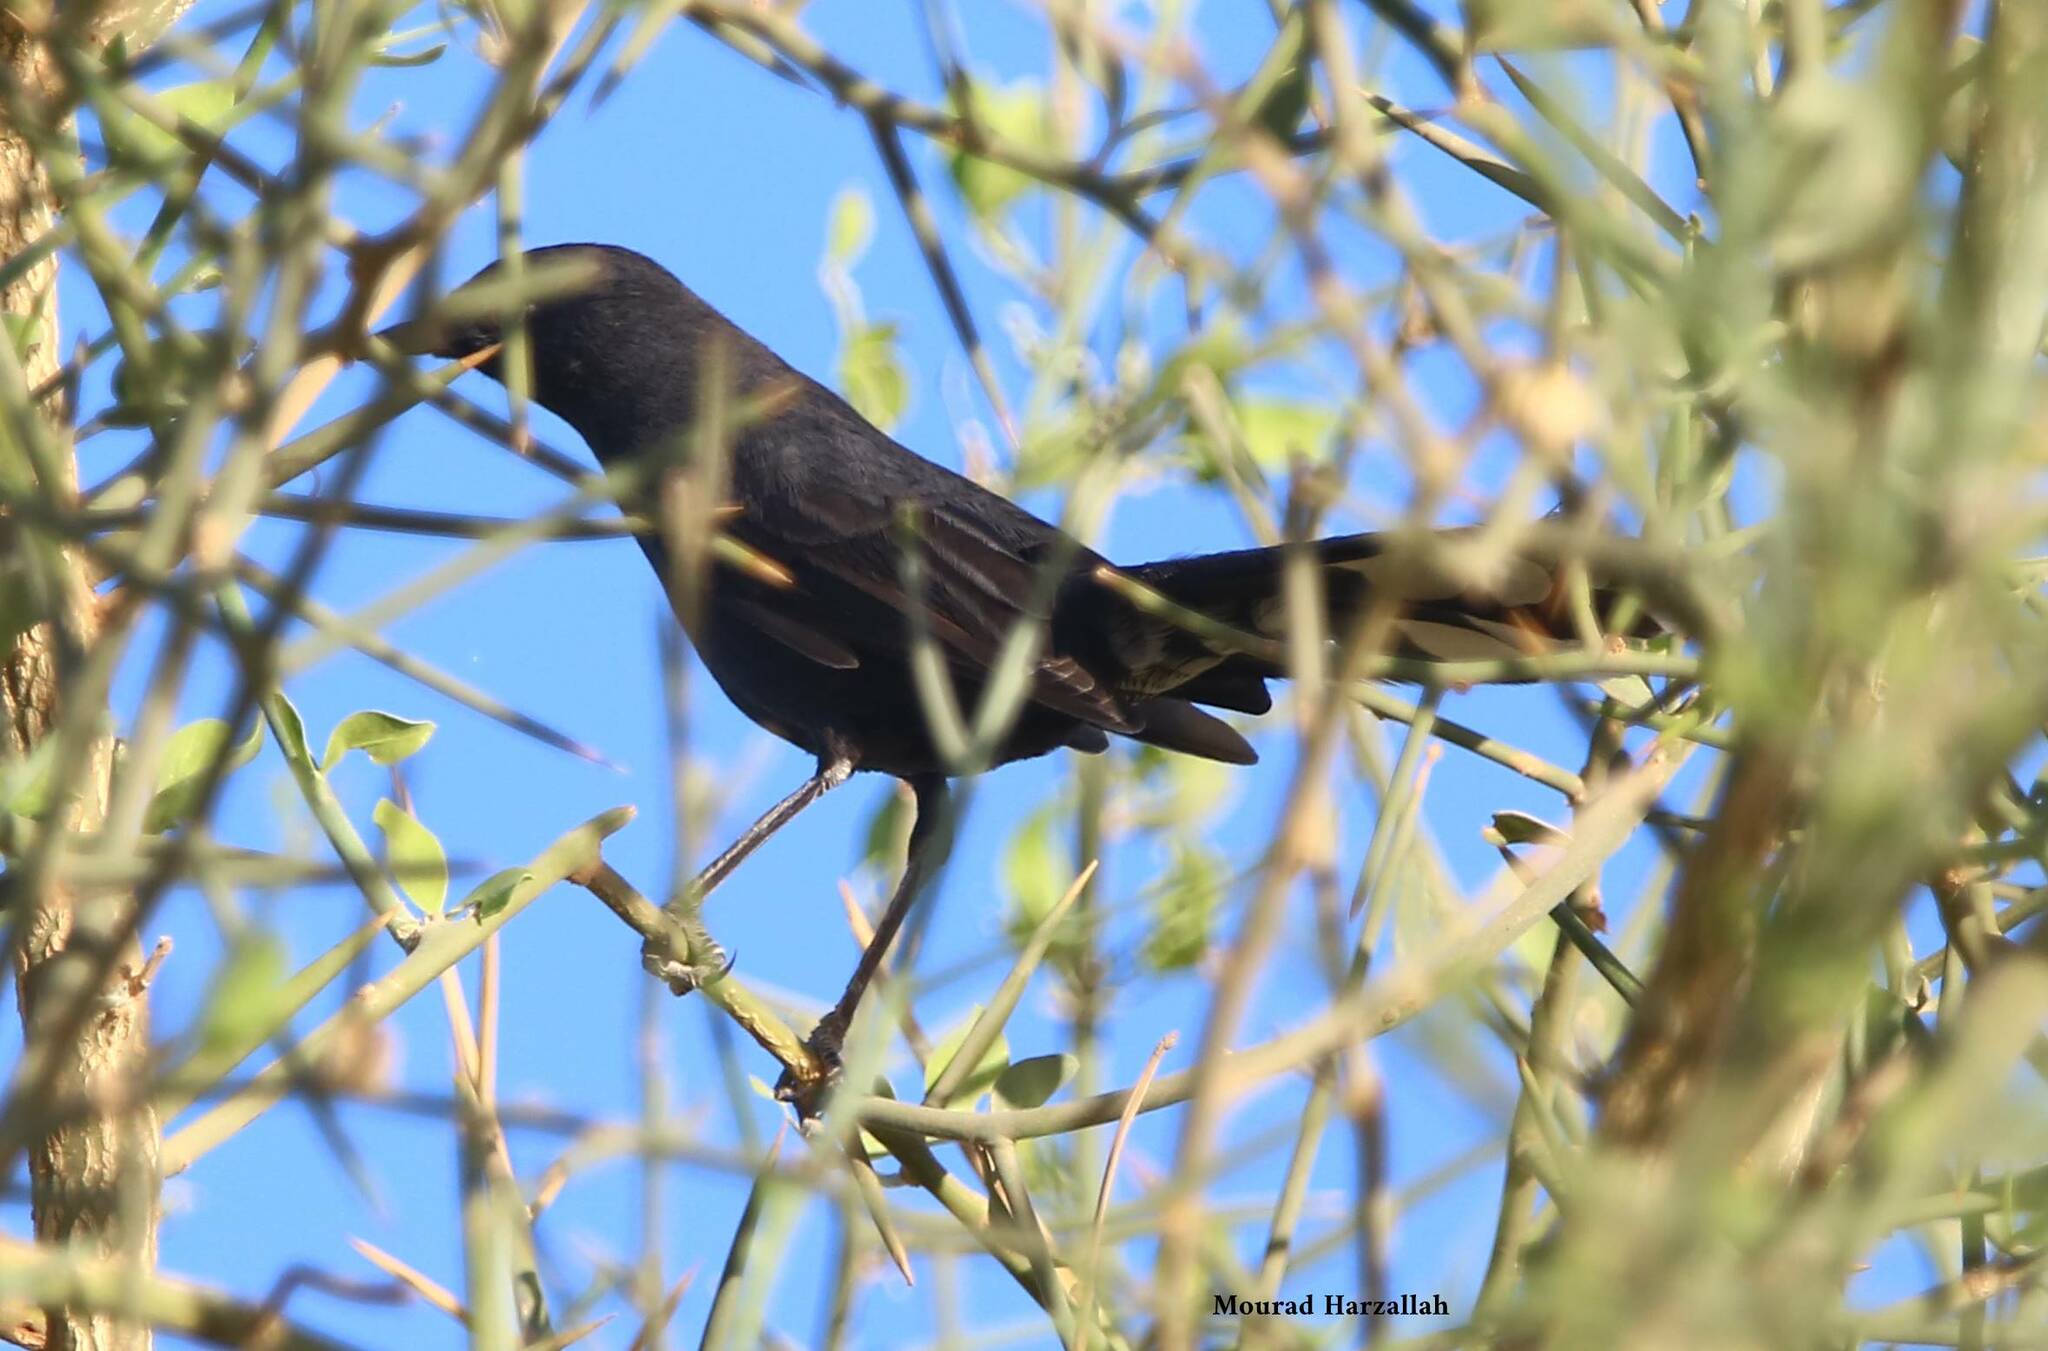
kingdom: Animalia
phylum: Chordata
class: Aves
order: Passeriformes
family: Muscicapidae
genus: Cercotrichas
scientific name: Cercotrichas podobe
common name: Black scrub robin
